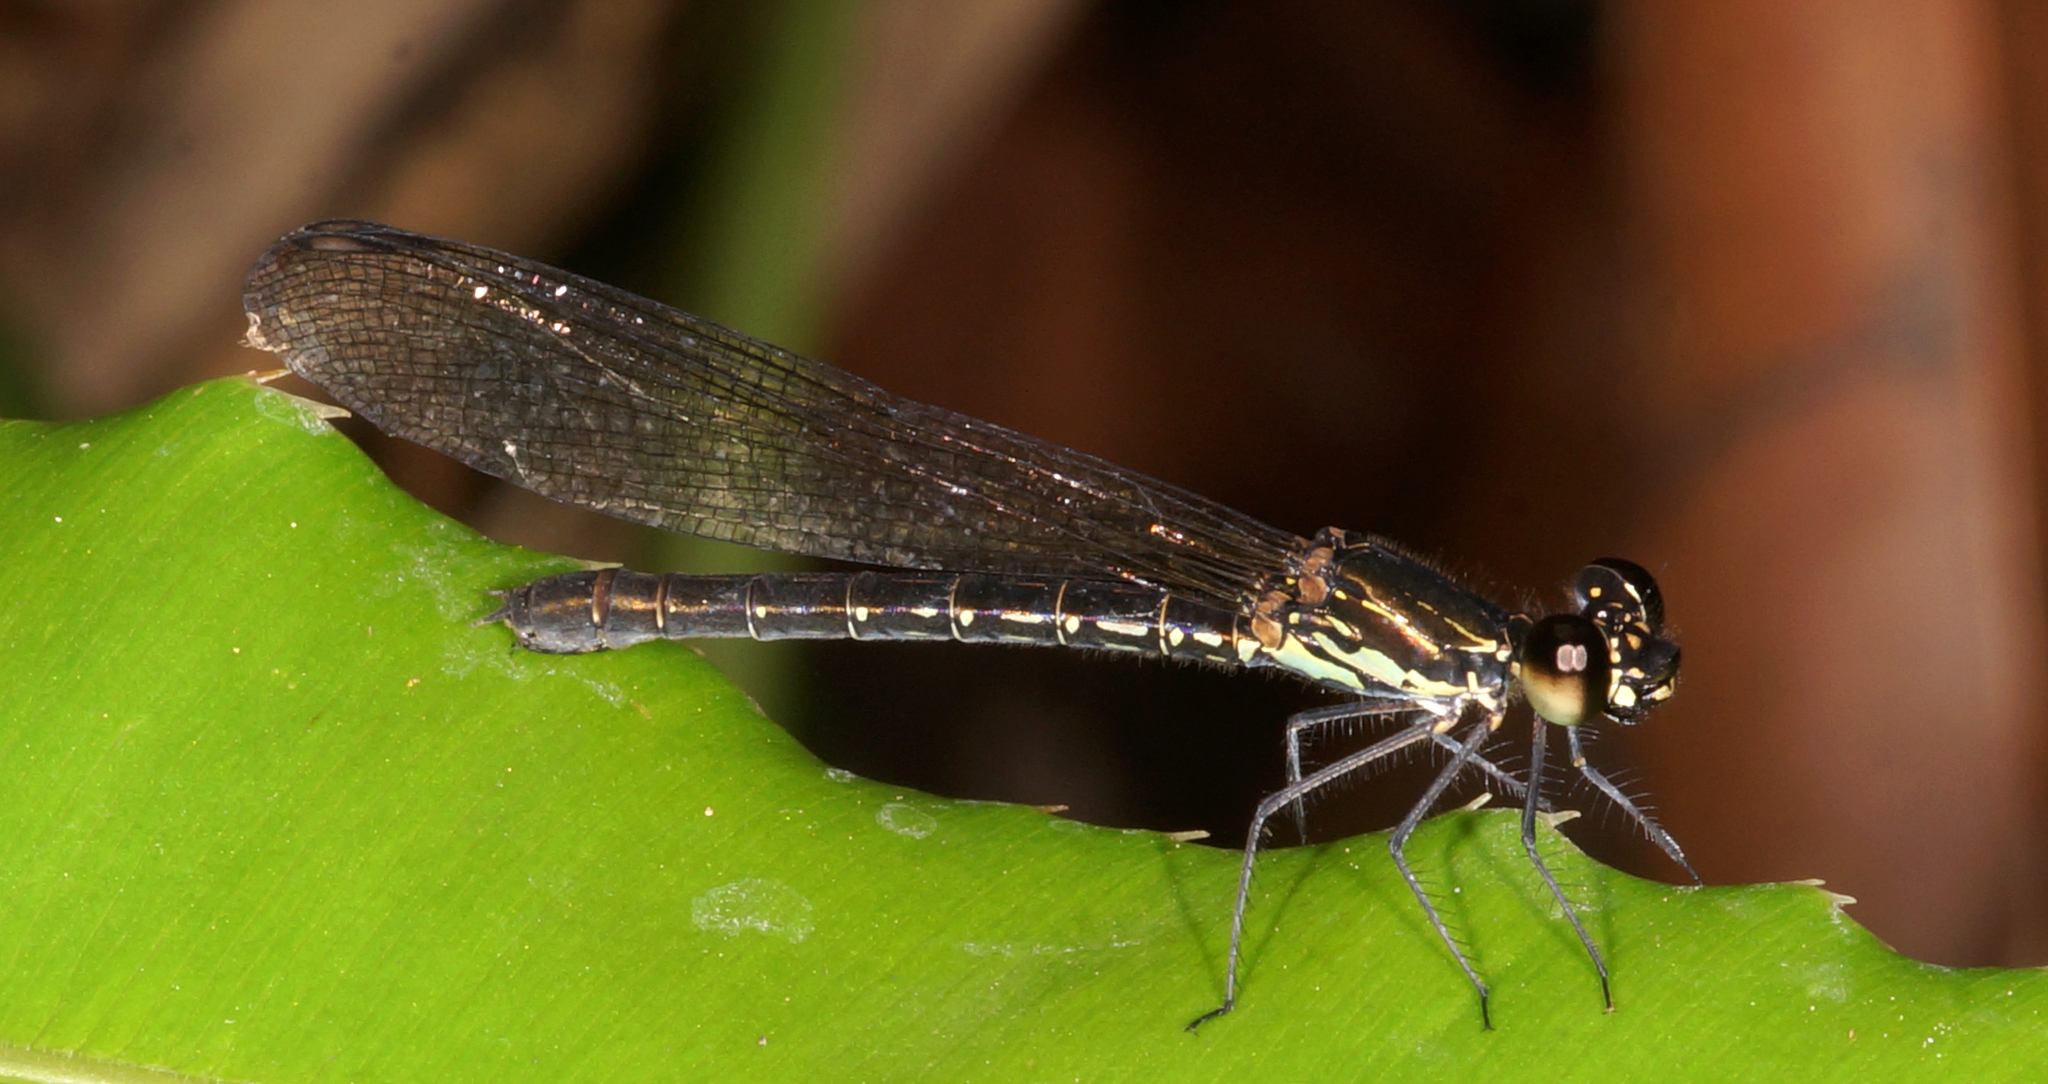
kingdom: Animalia
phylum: Arthropoda
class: Insecta
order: Odonata
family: Chlorocyphidae
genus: Heliocypha
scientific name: Heliocypha biforata
